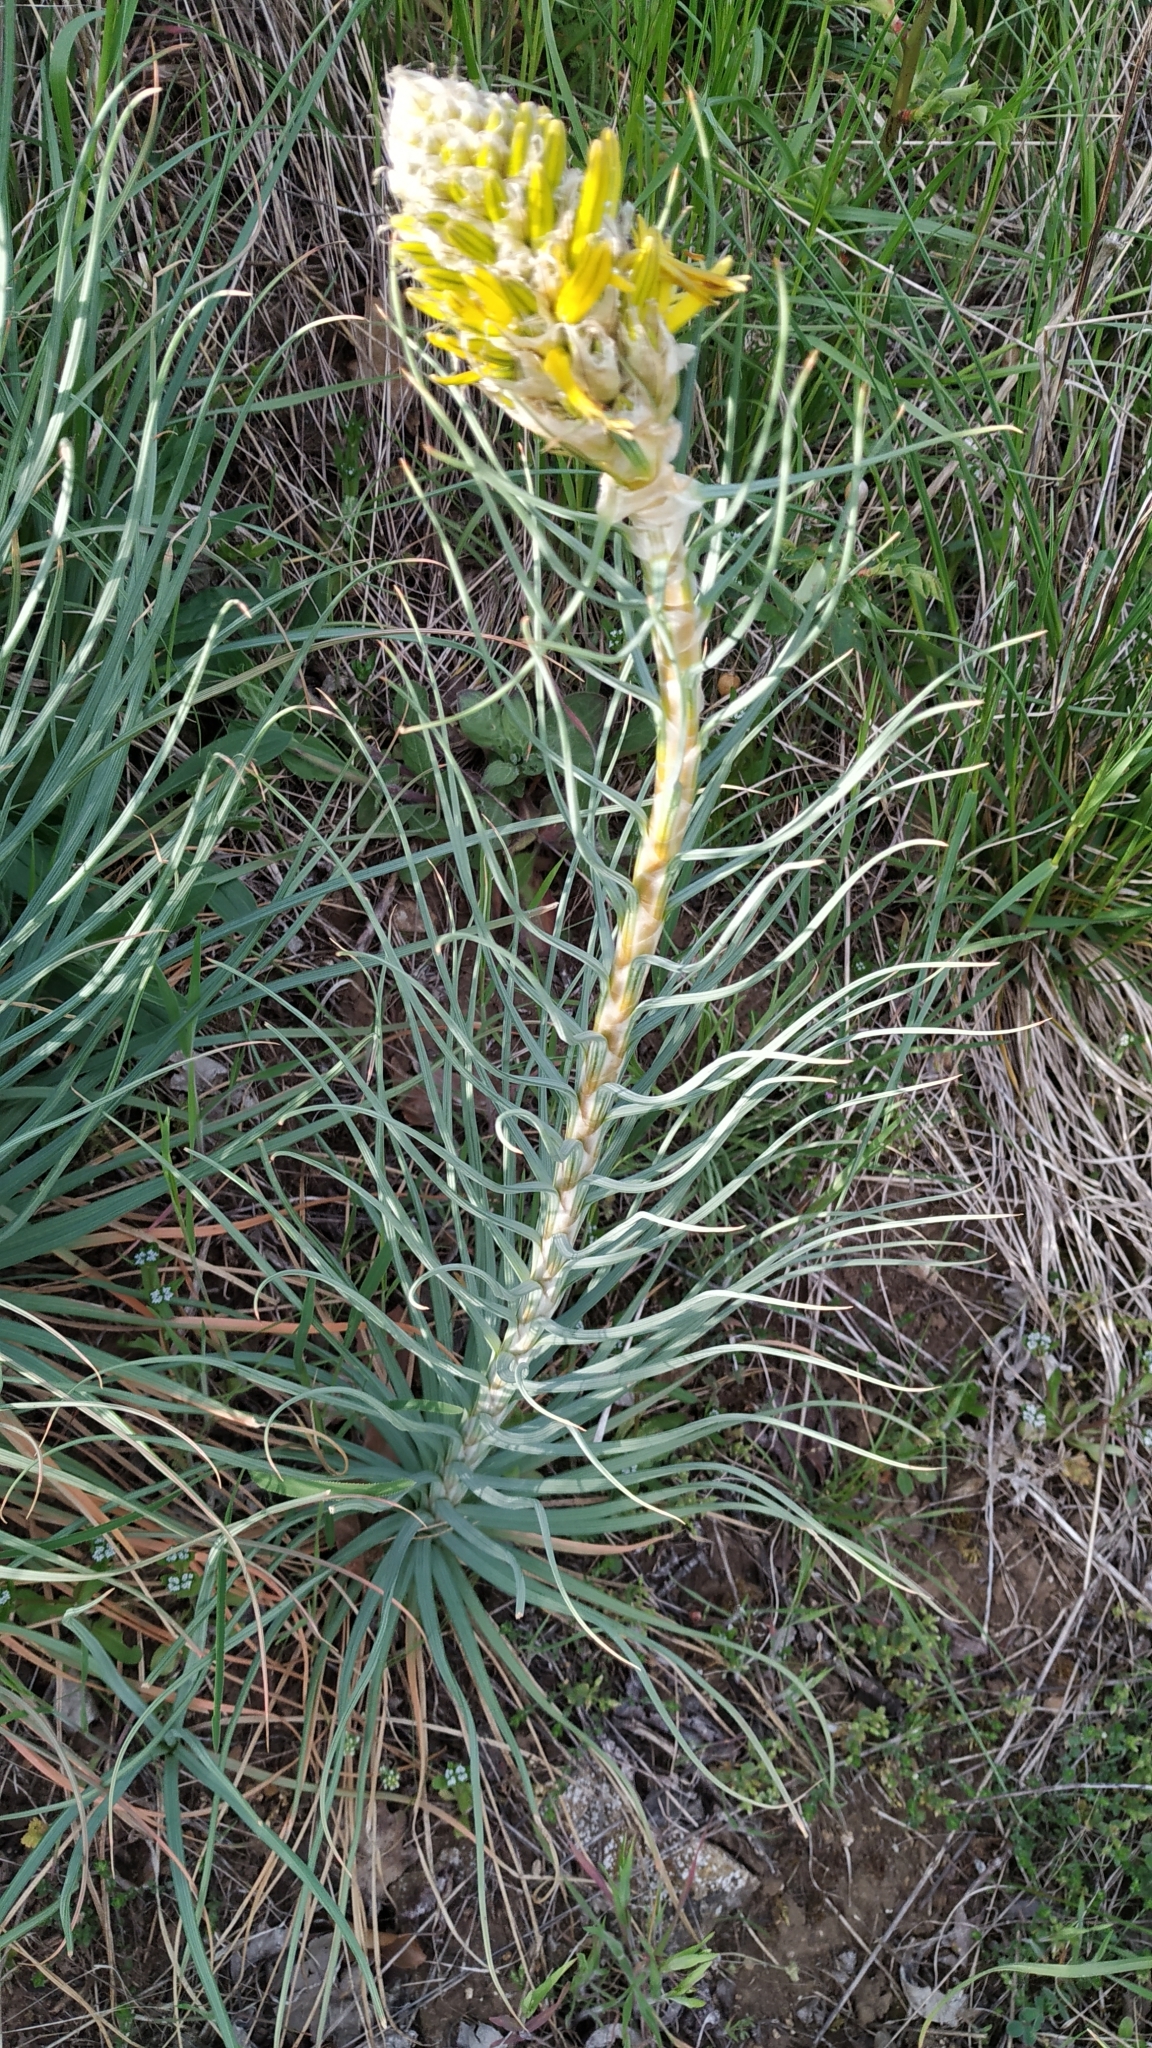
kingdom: Plantae
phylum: Tracheophyta
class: Liliopsida
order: Asparagales
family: Asphodelaceae
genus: Asphodeline
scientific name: Asphodeline lutea
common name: Yellow asphodel
